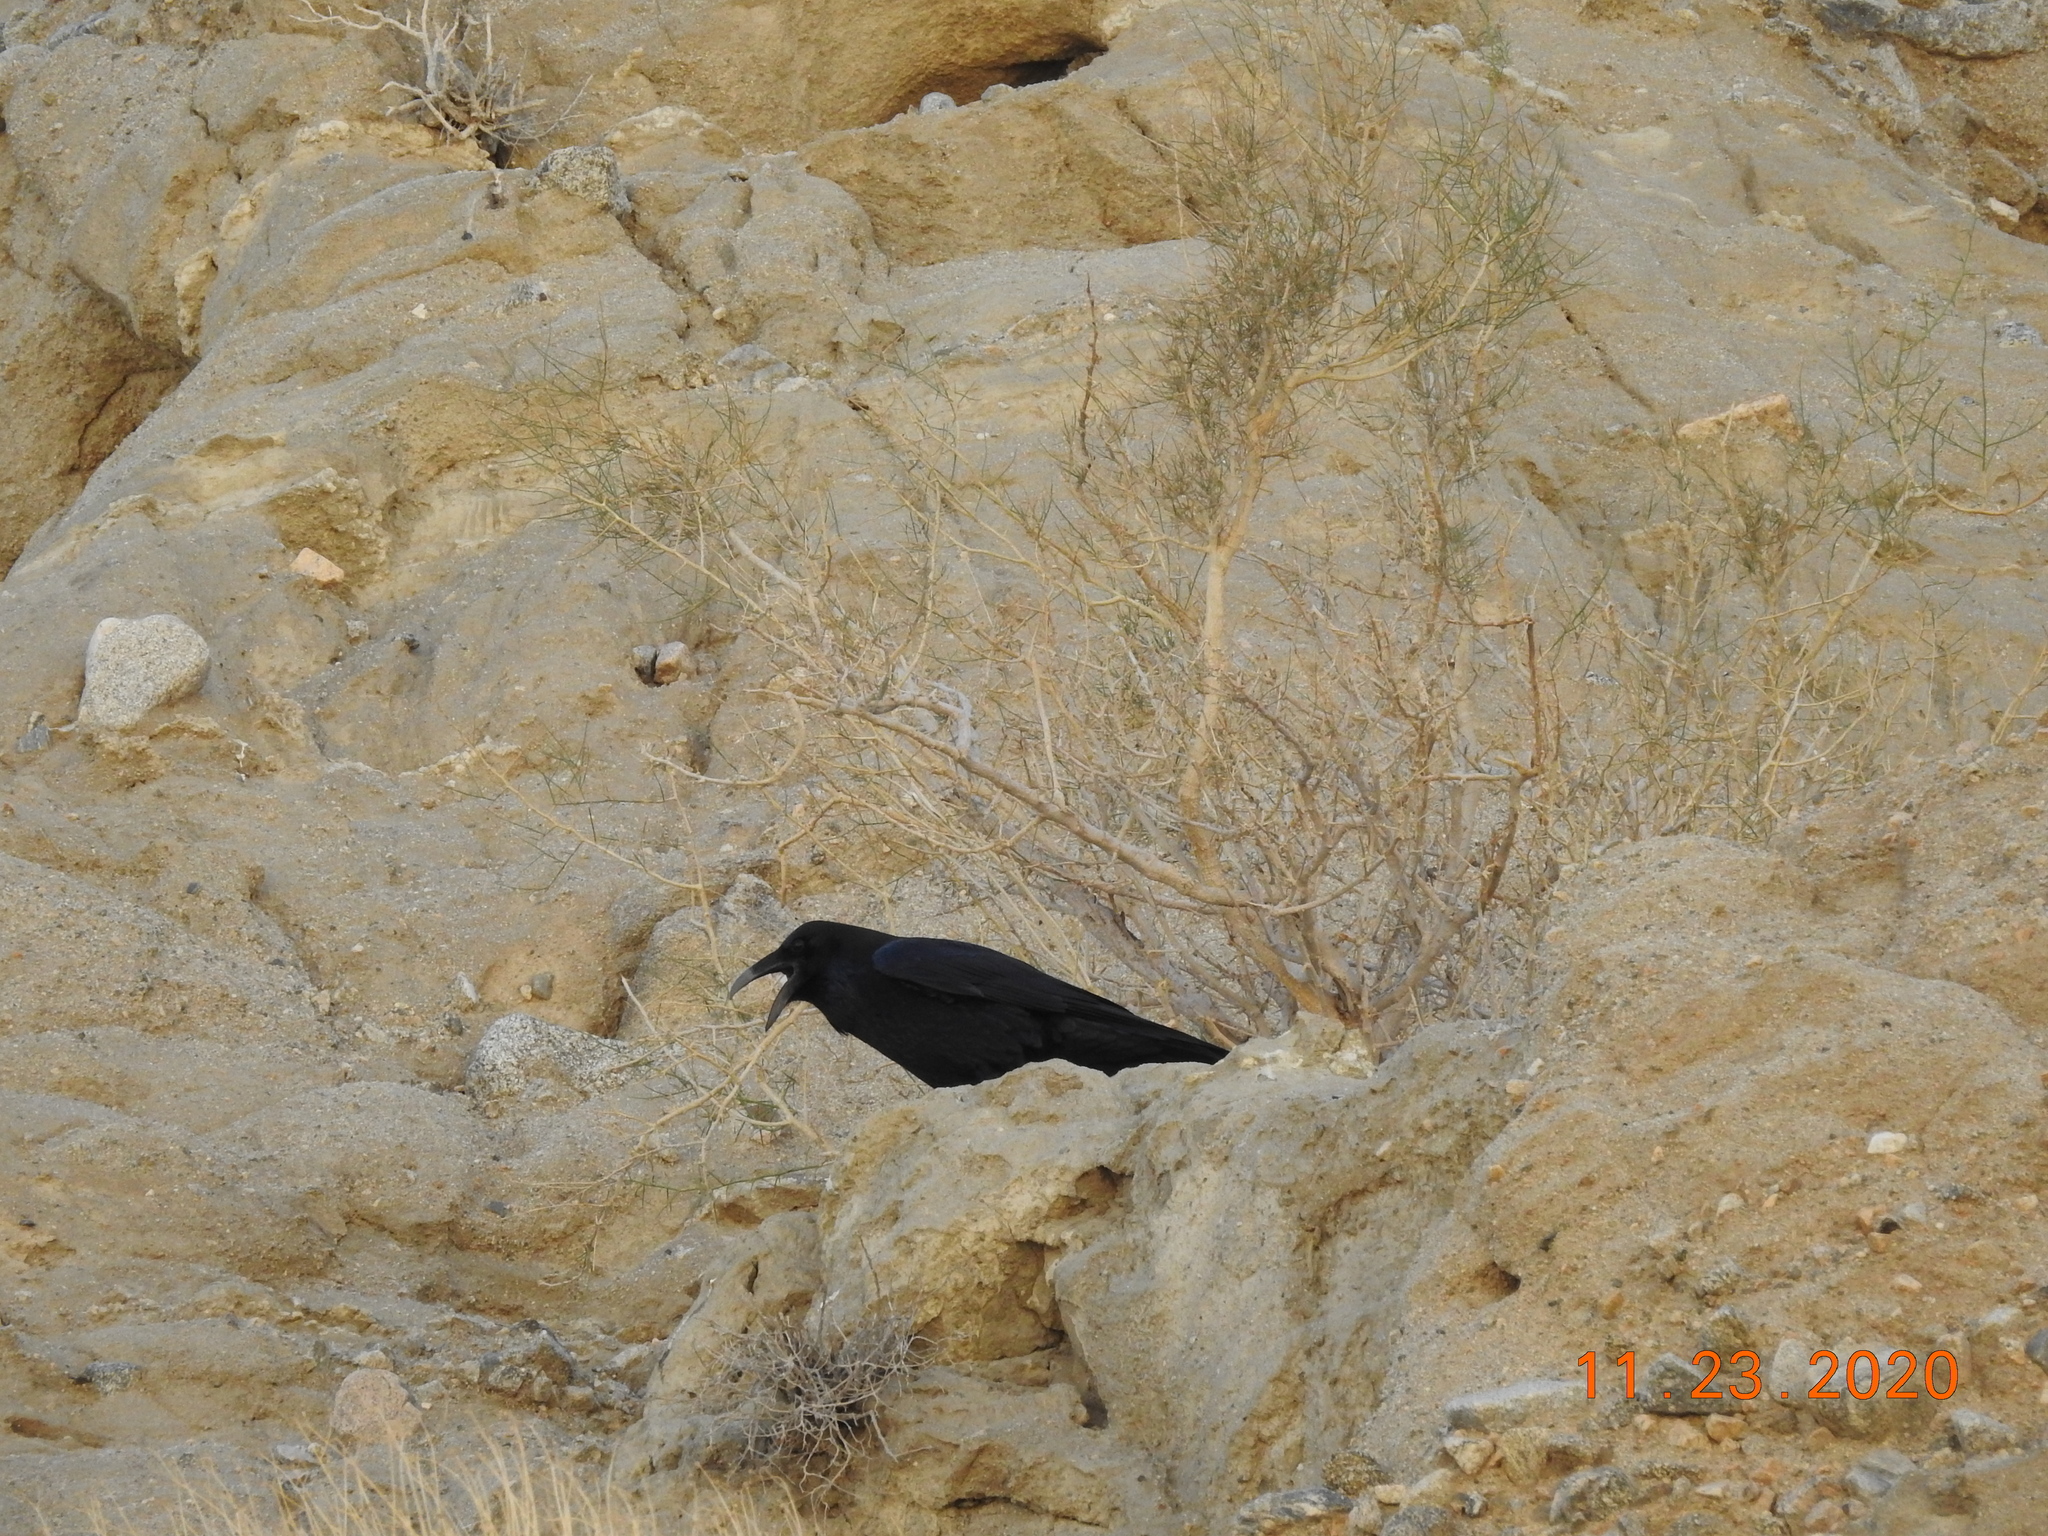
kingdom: Animalia
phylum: Chordata
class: Aves
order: Passeriformes
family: Corvidae
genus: Corvus
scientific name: Corvus corax
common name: Common raven
